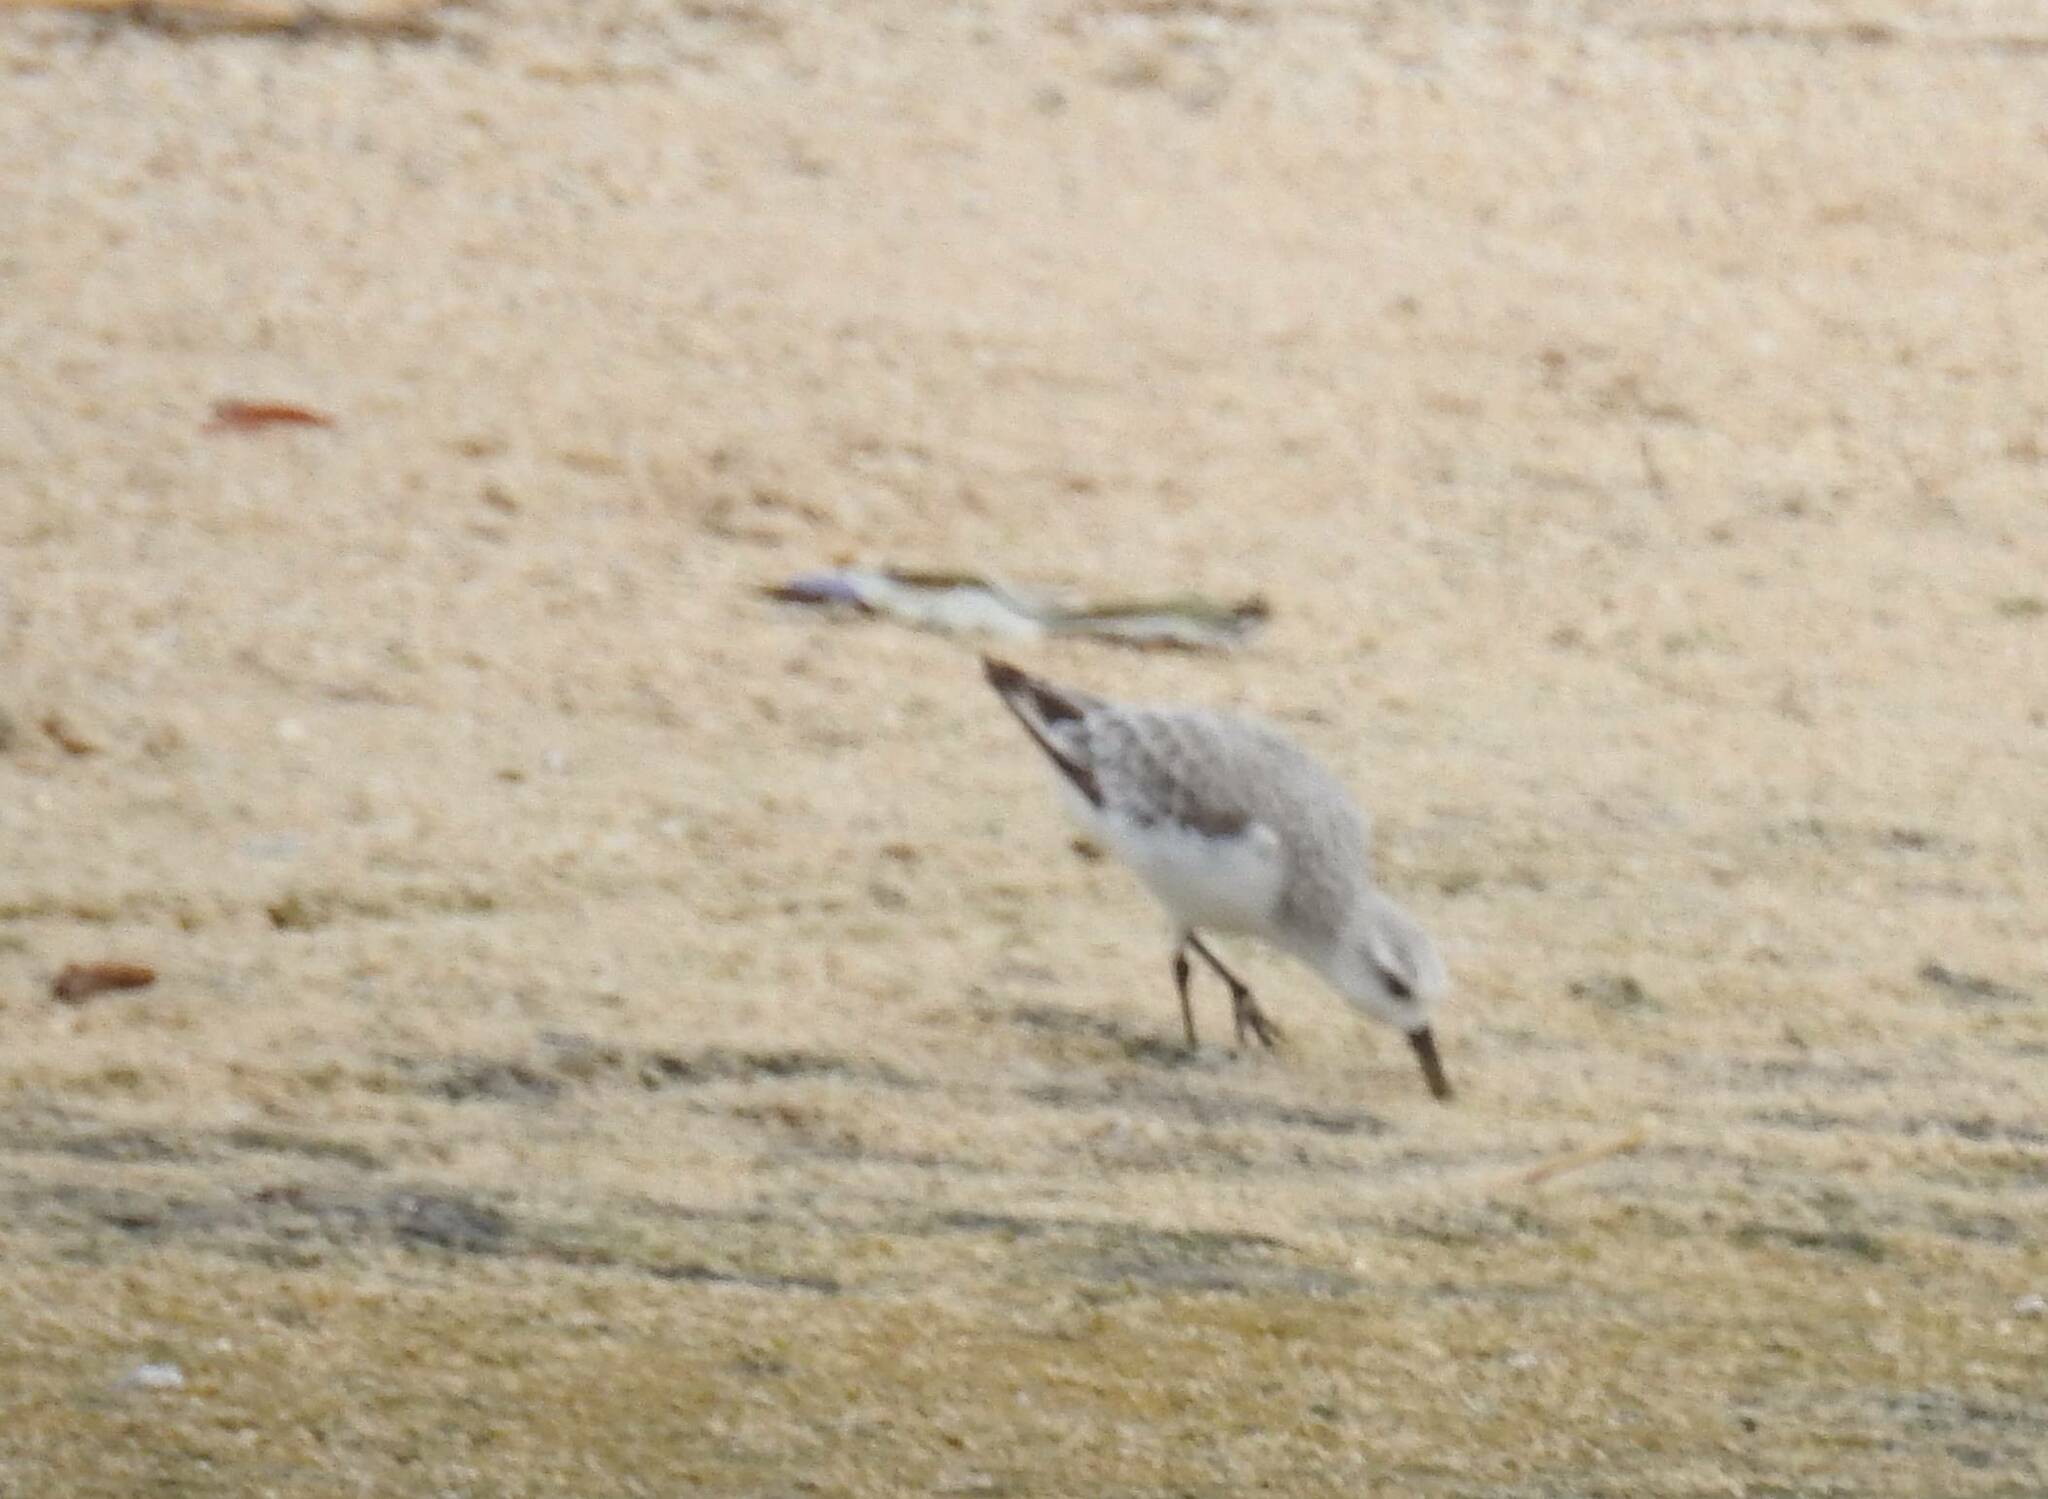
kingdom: Animalia
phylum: Chordata
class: Aves
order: Charadriiformes
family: Scolopacidae
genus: Calidris
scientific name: Calidris alba
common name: Sanderling
